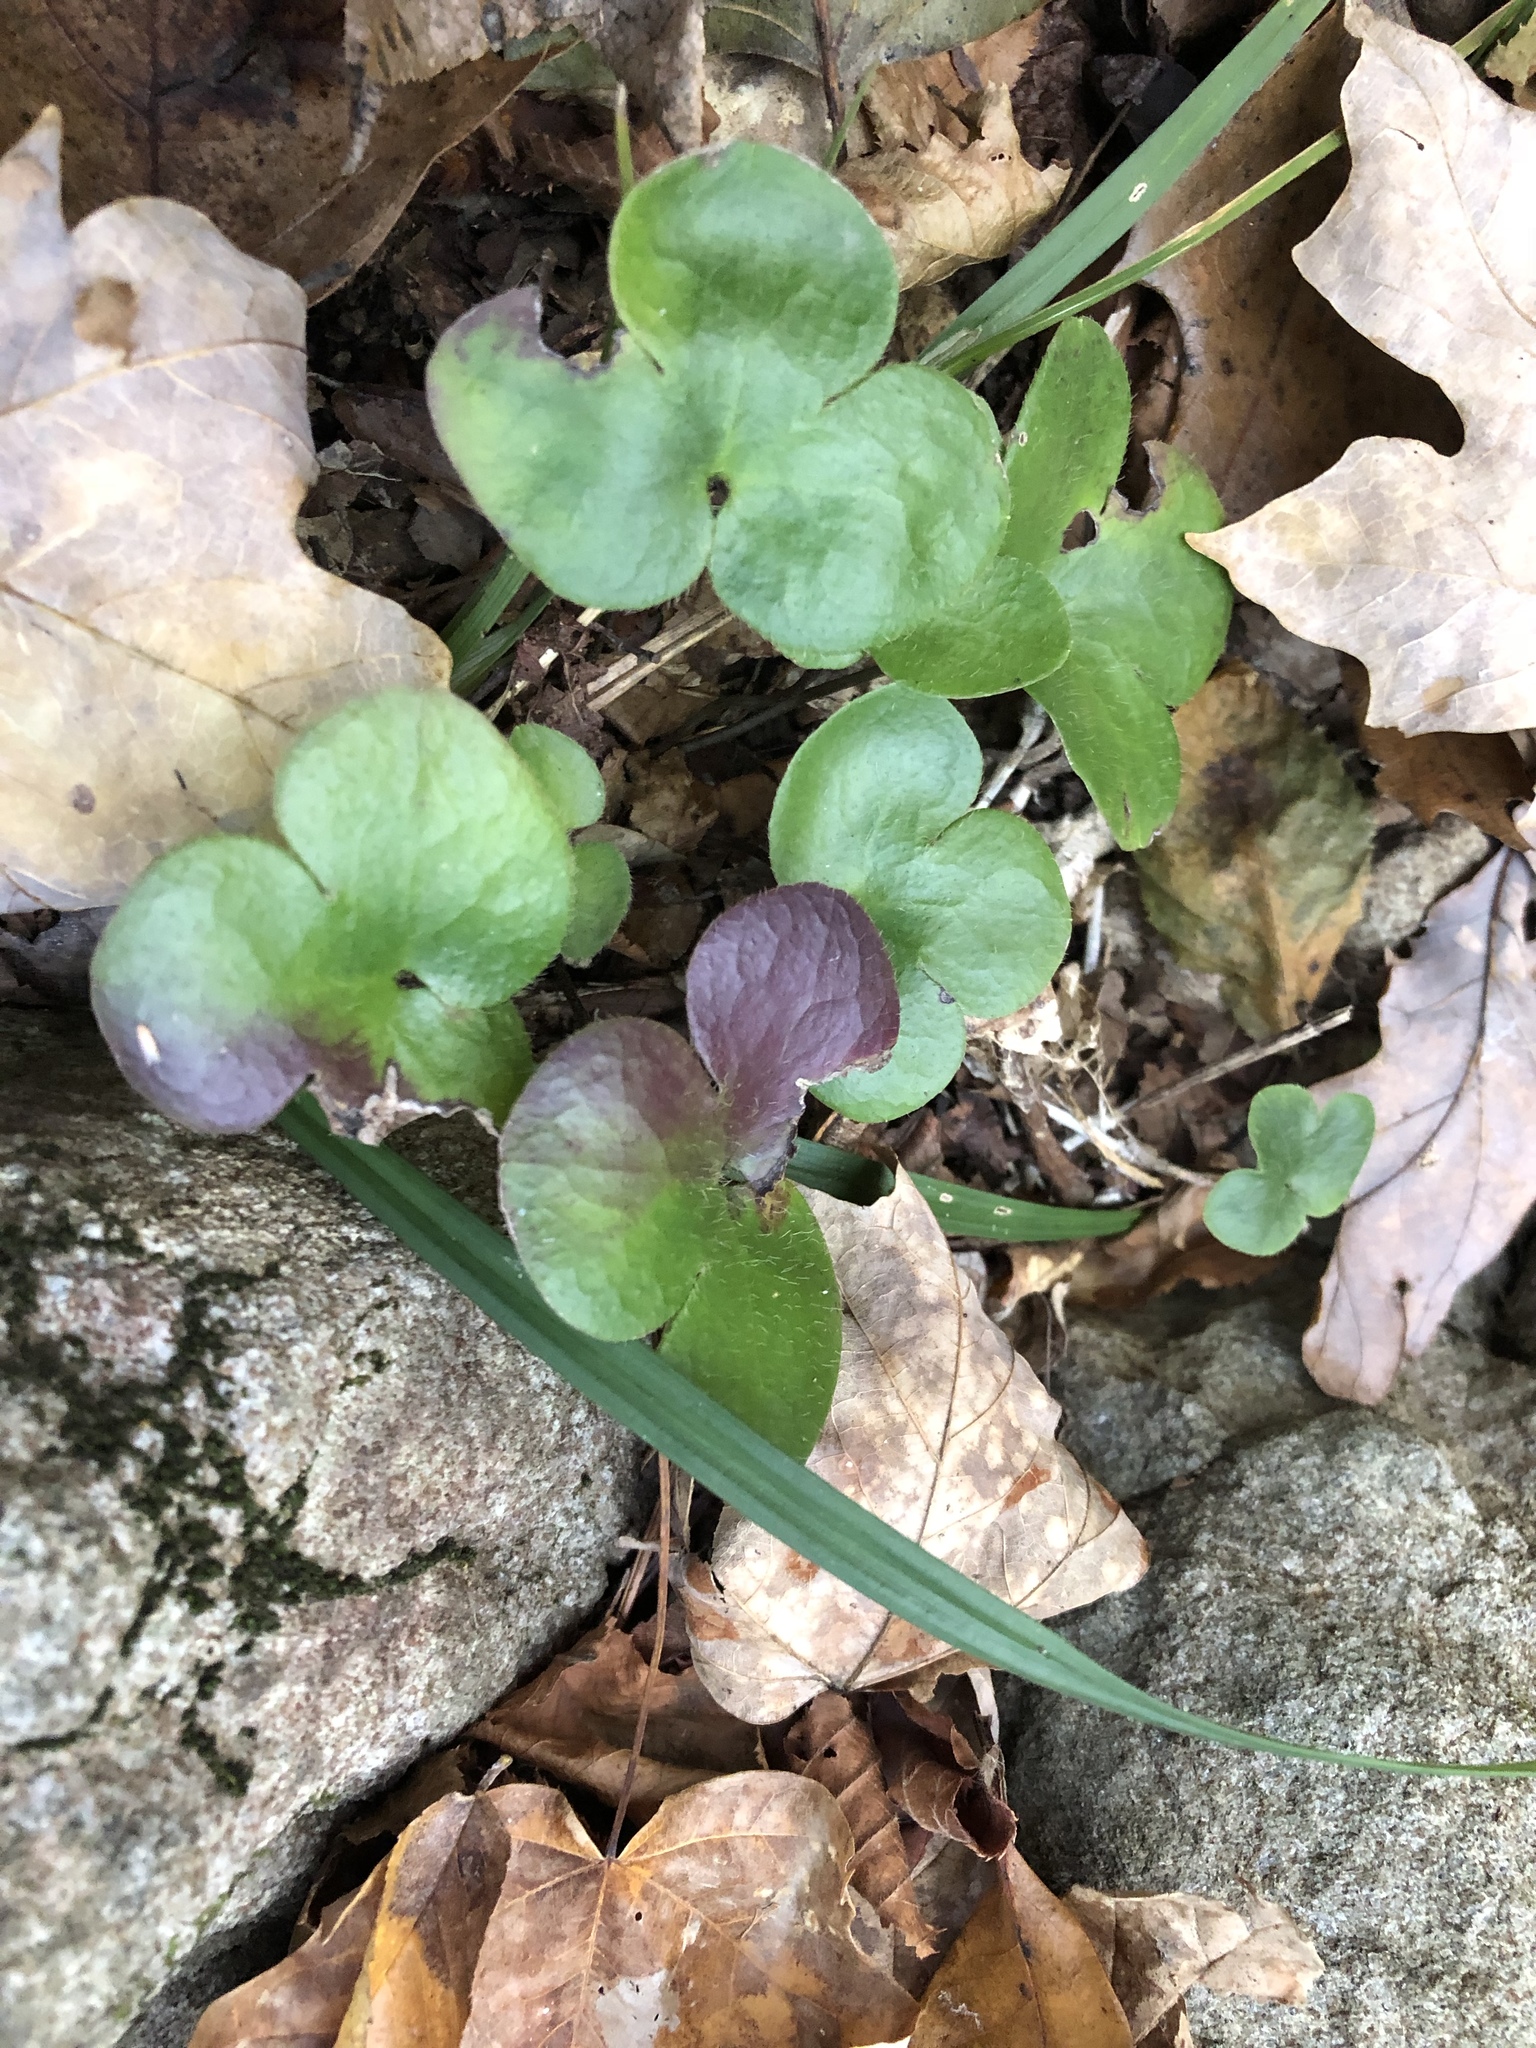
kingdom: Plantae
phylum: Tracheophyta
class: Magnoliopsida
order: Ranunculales
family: Ranunculaceae
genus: Hepatica
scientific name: Hepatica americana
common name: American hepatica
